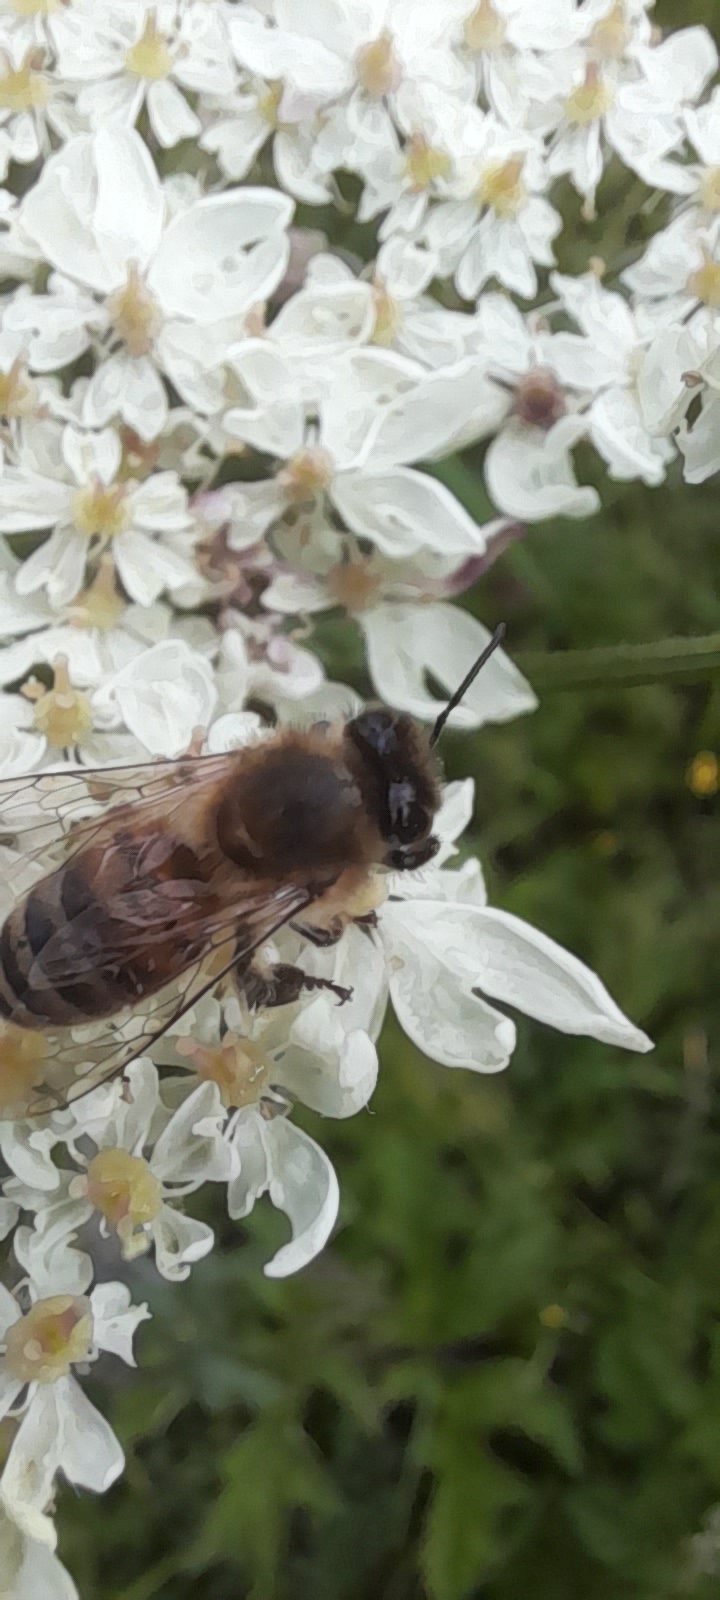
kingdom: Animalia
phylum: Arthropoda
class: Insecta
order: Hymenoptera
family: Apidae
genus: Apis
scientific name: Apis mellifera
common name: Honey bee
